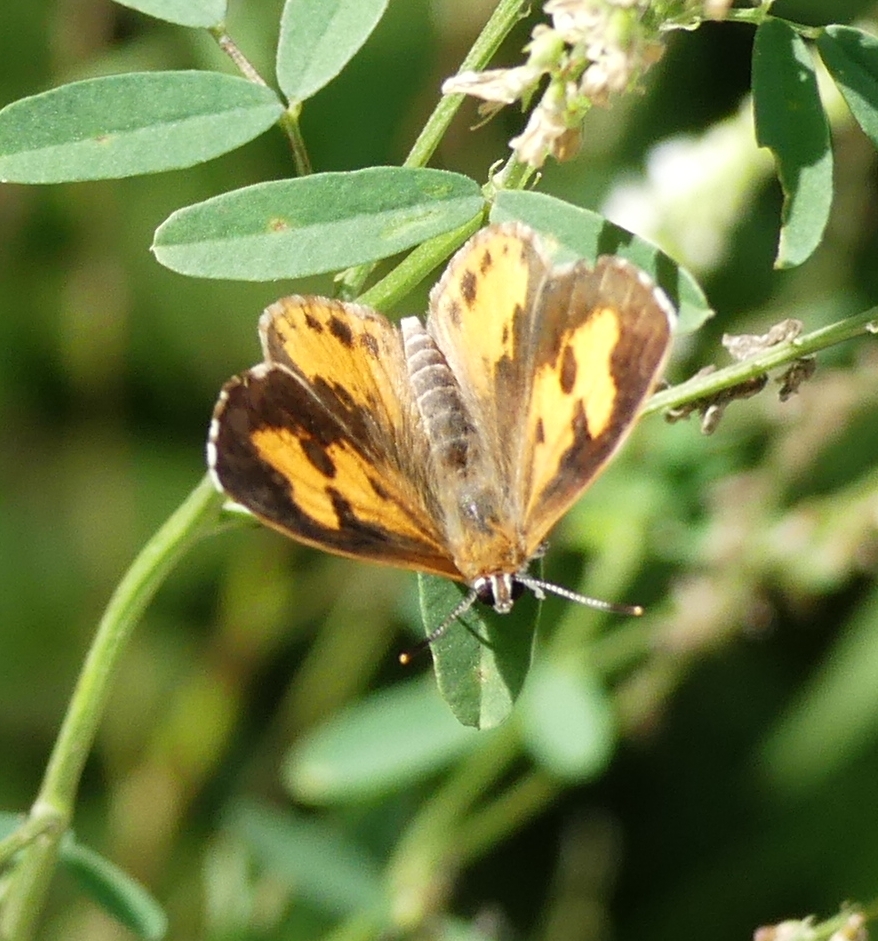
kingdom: Animalia
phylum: Arthropoda
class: Insecta
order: Lepidoptera
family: Lycaenidae
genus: Feniseca
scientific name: Feniseca tarquinius
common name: Harvester
